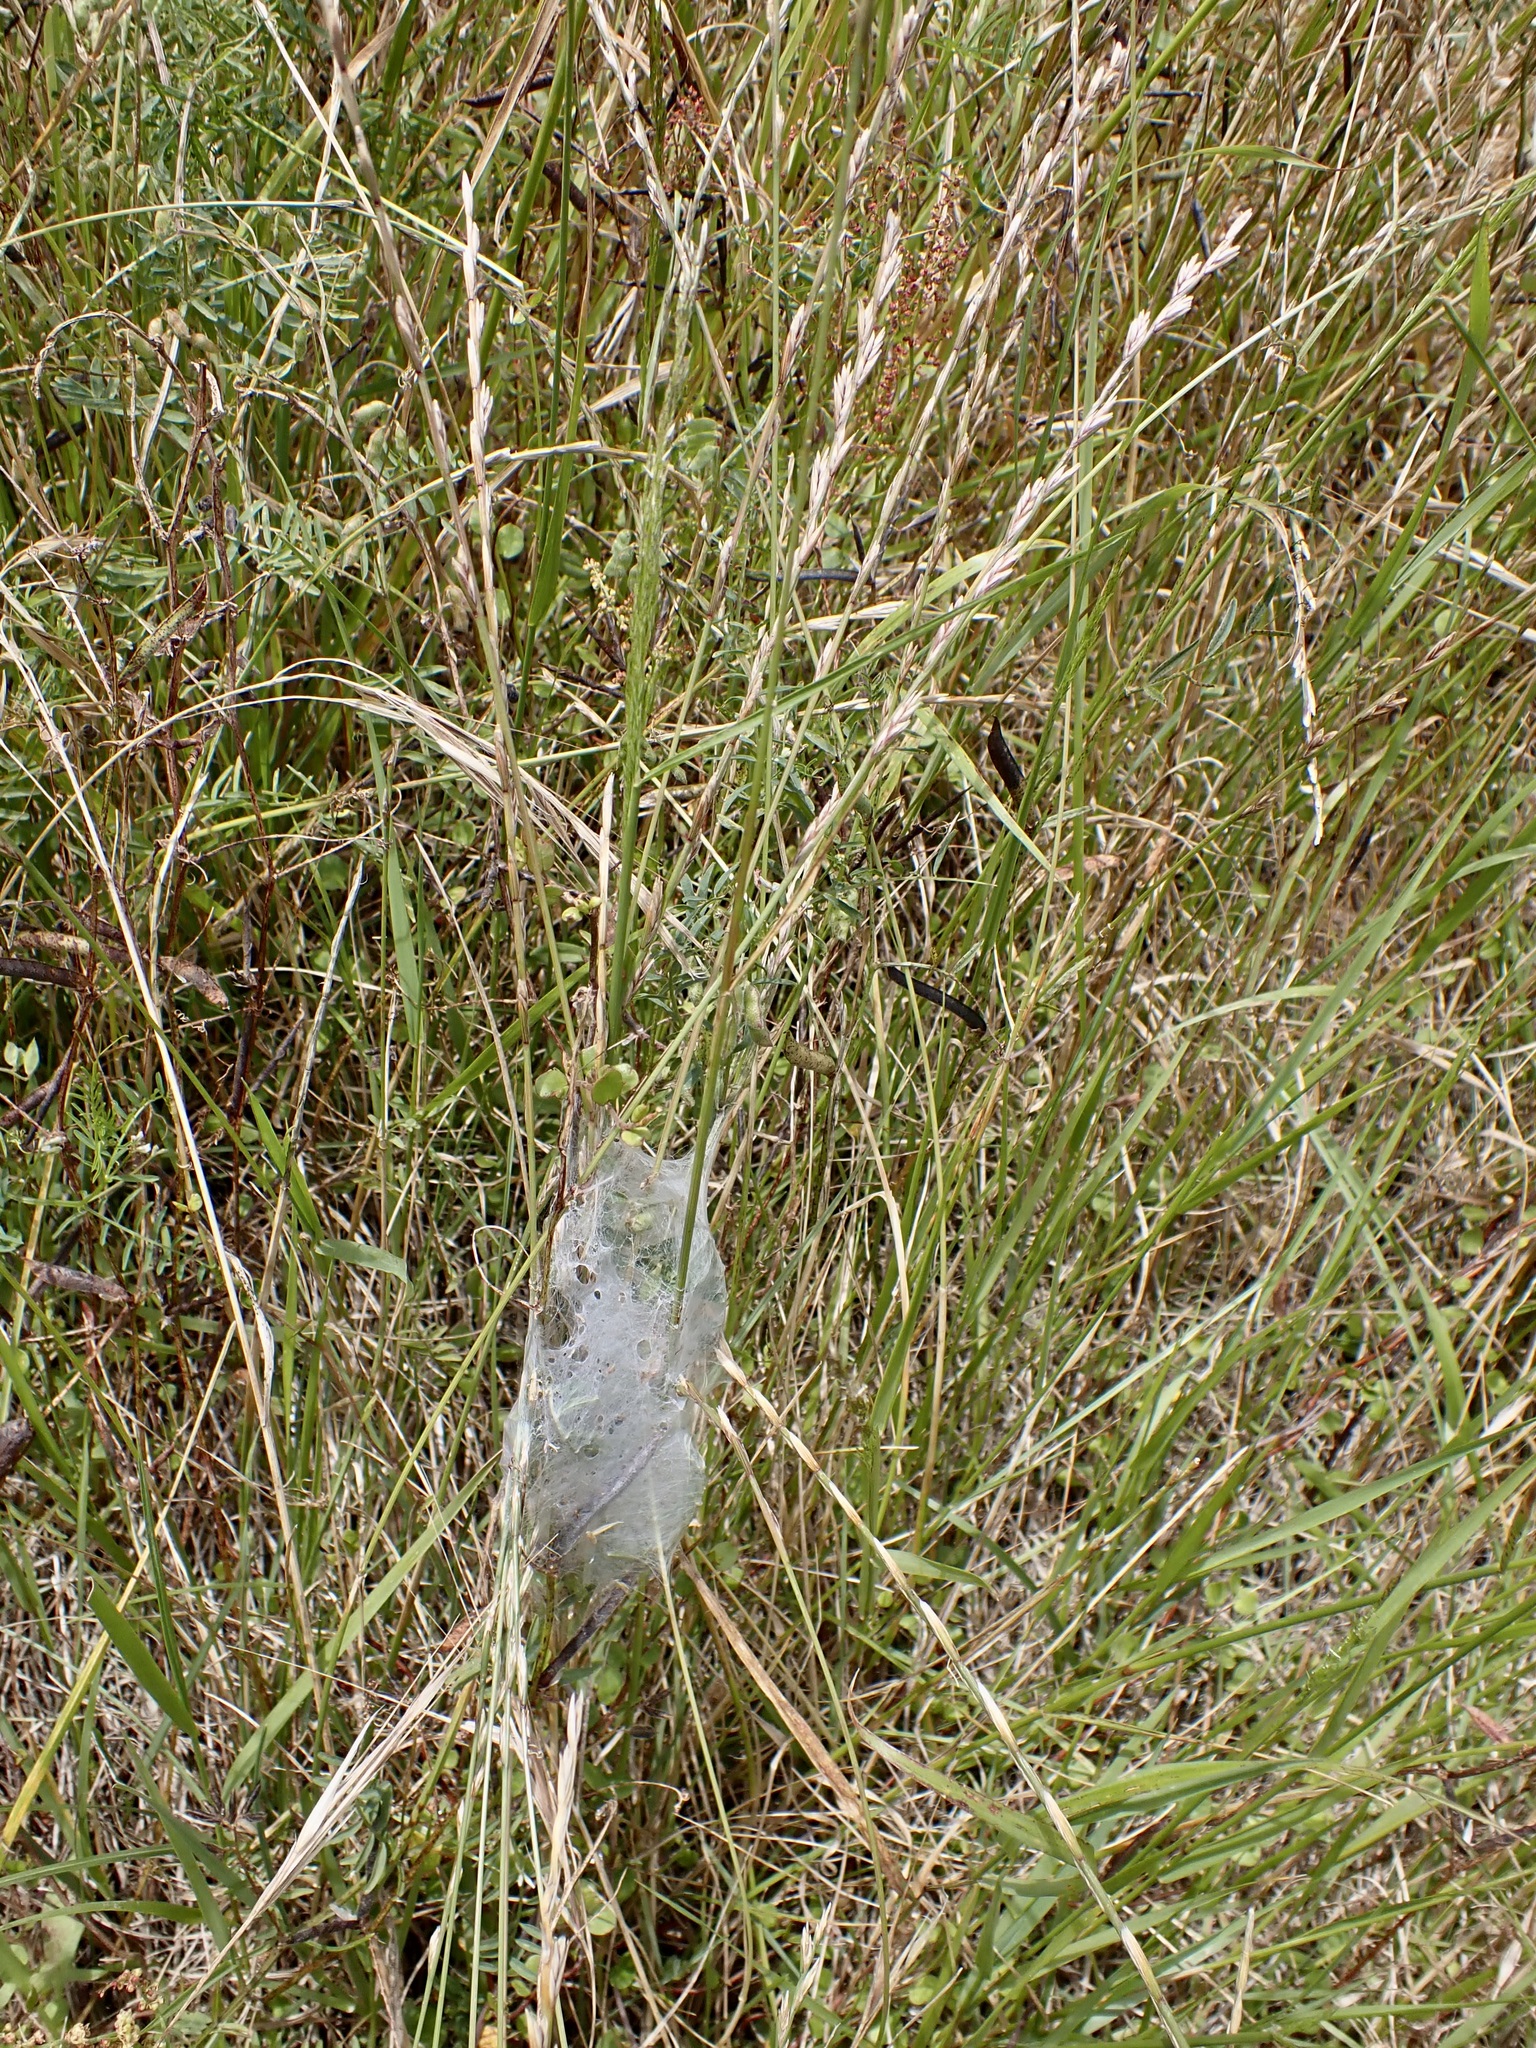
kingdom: Animalia
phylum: Arthropoda
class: Arachnida
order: Araneae
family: Pisauridae
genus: Dolomedes
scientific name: Dolomedes minor
